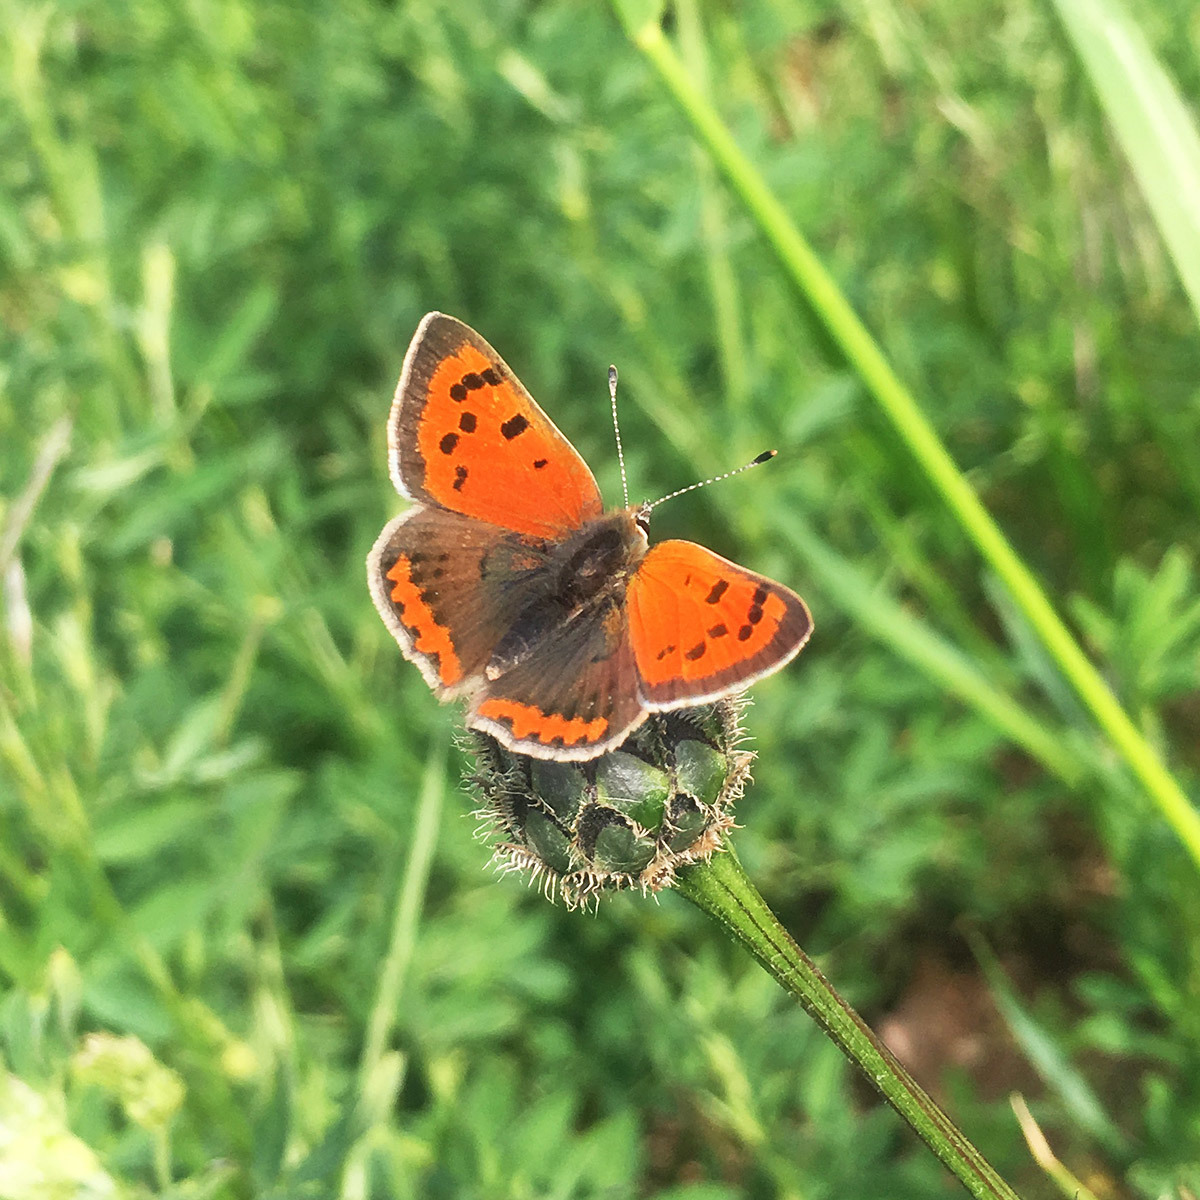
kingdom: Animalia
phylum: Arthropoda
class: Insecta
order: Lepidoptera
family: Lycaenidae
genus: Lycaena
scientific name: Lycaena phlaeas
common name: Small copper
